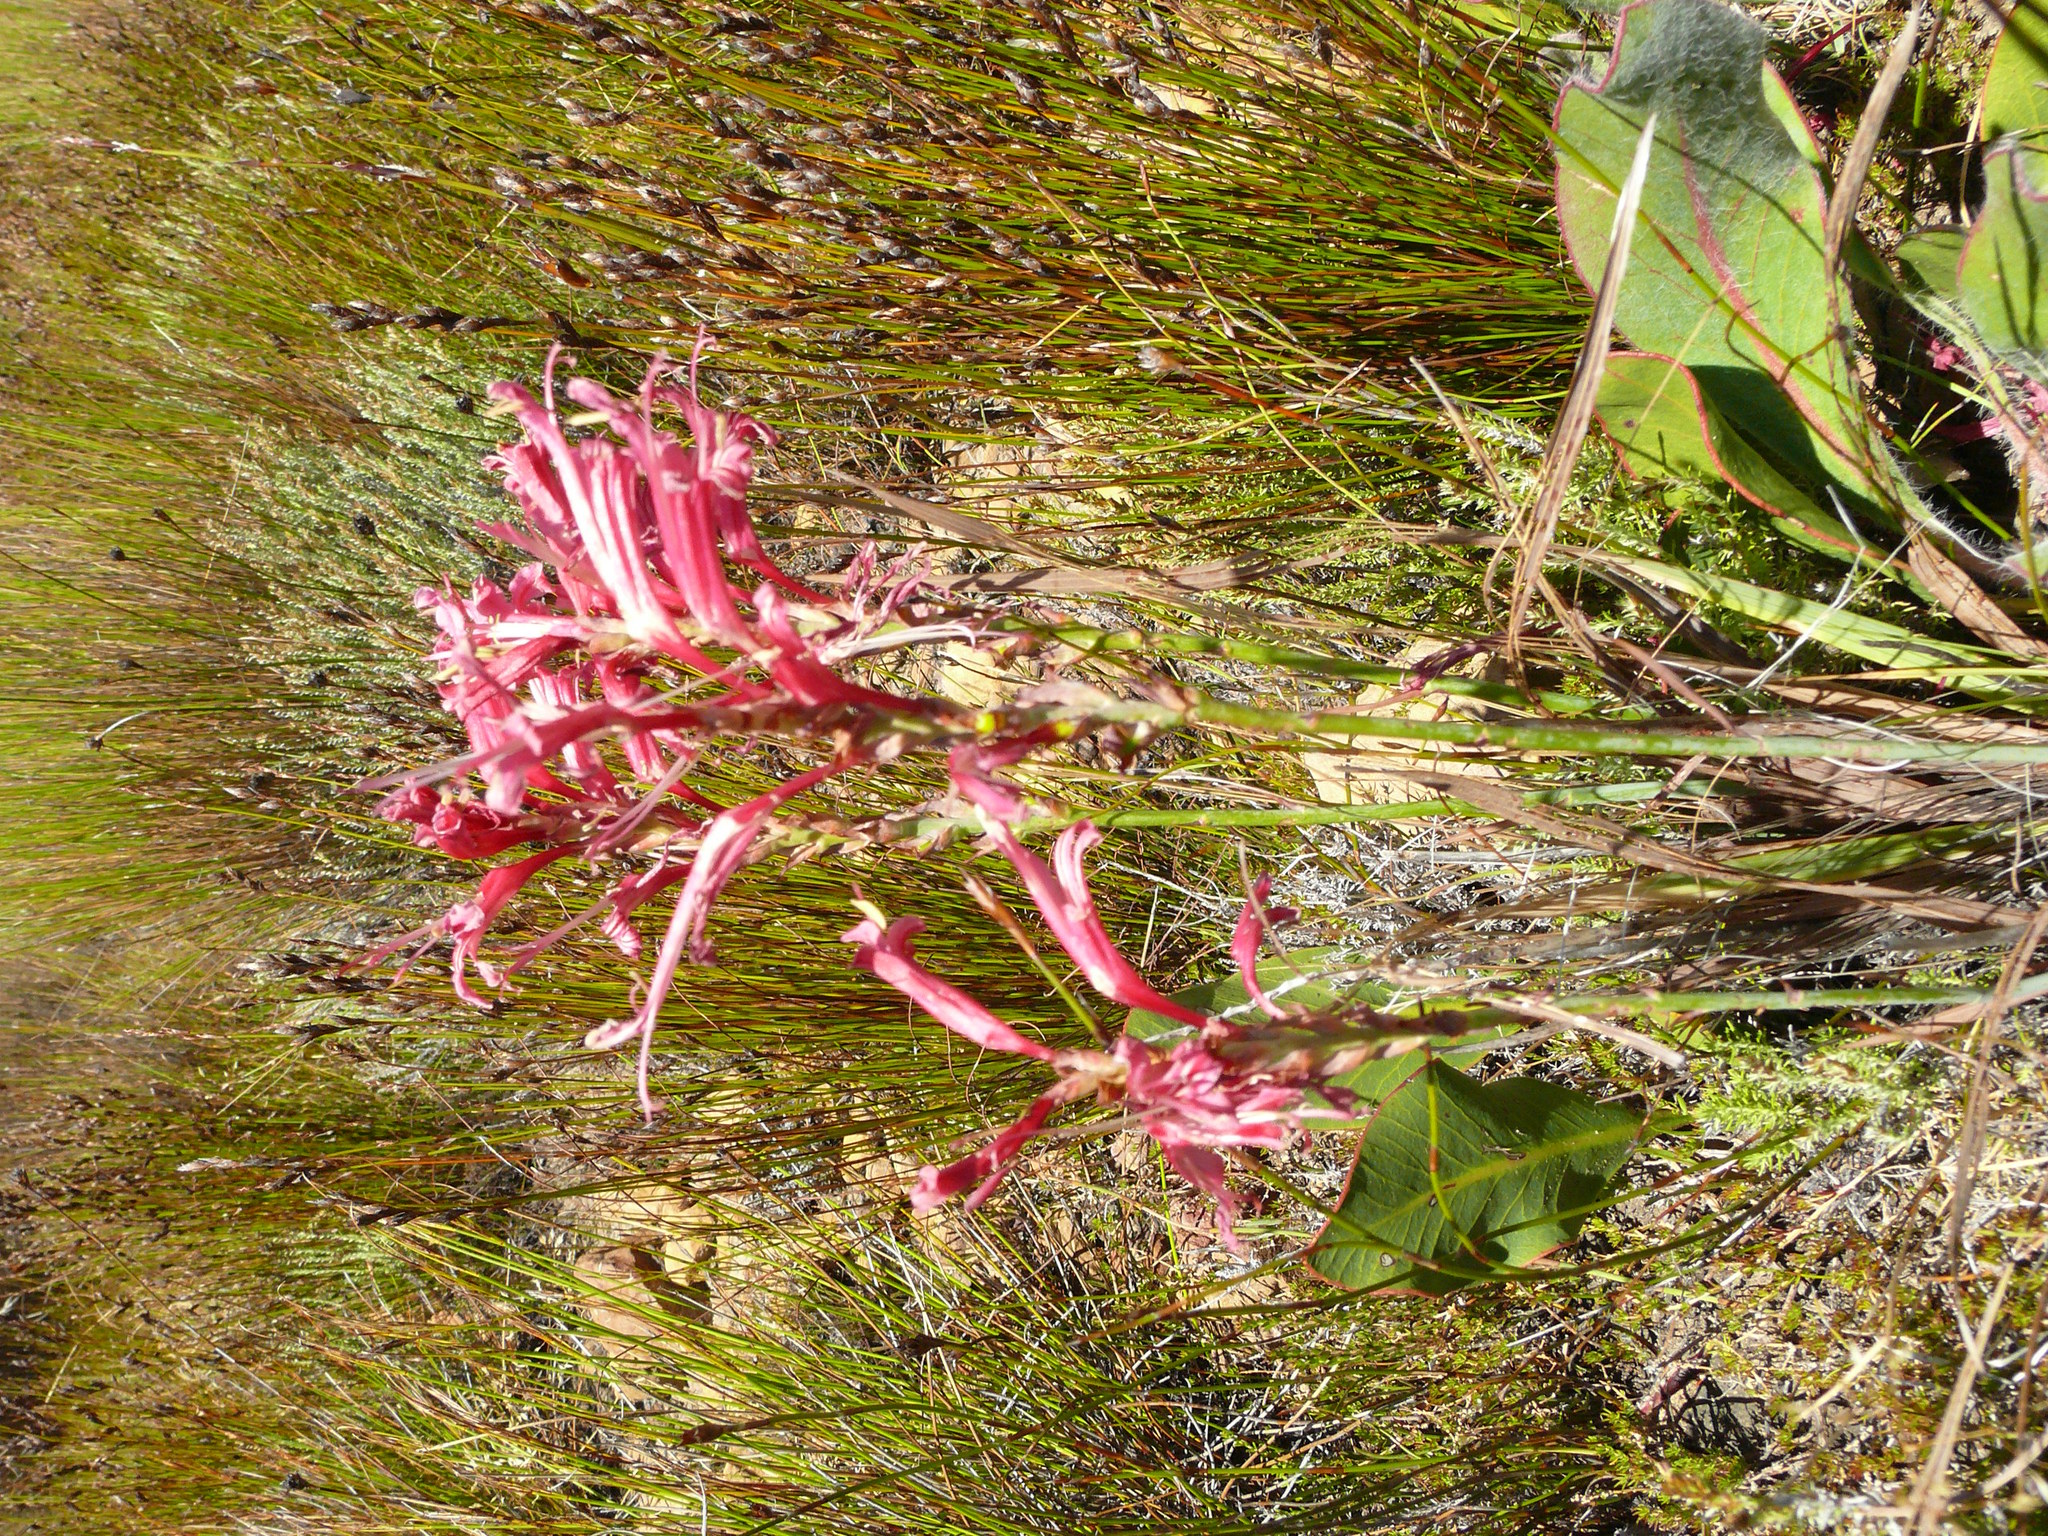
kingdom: Plantae
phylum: Tracheophyta
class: Liliopsida
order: Asparagales
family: Iridaceae
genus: Tritoniopsis
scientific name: Tritoniopsis antholyza
